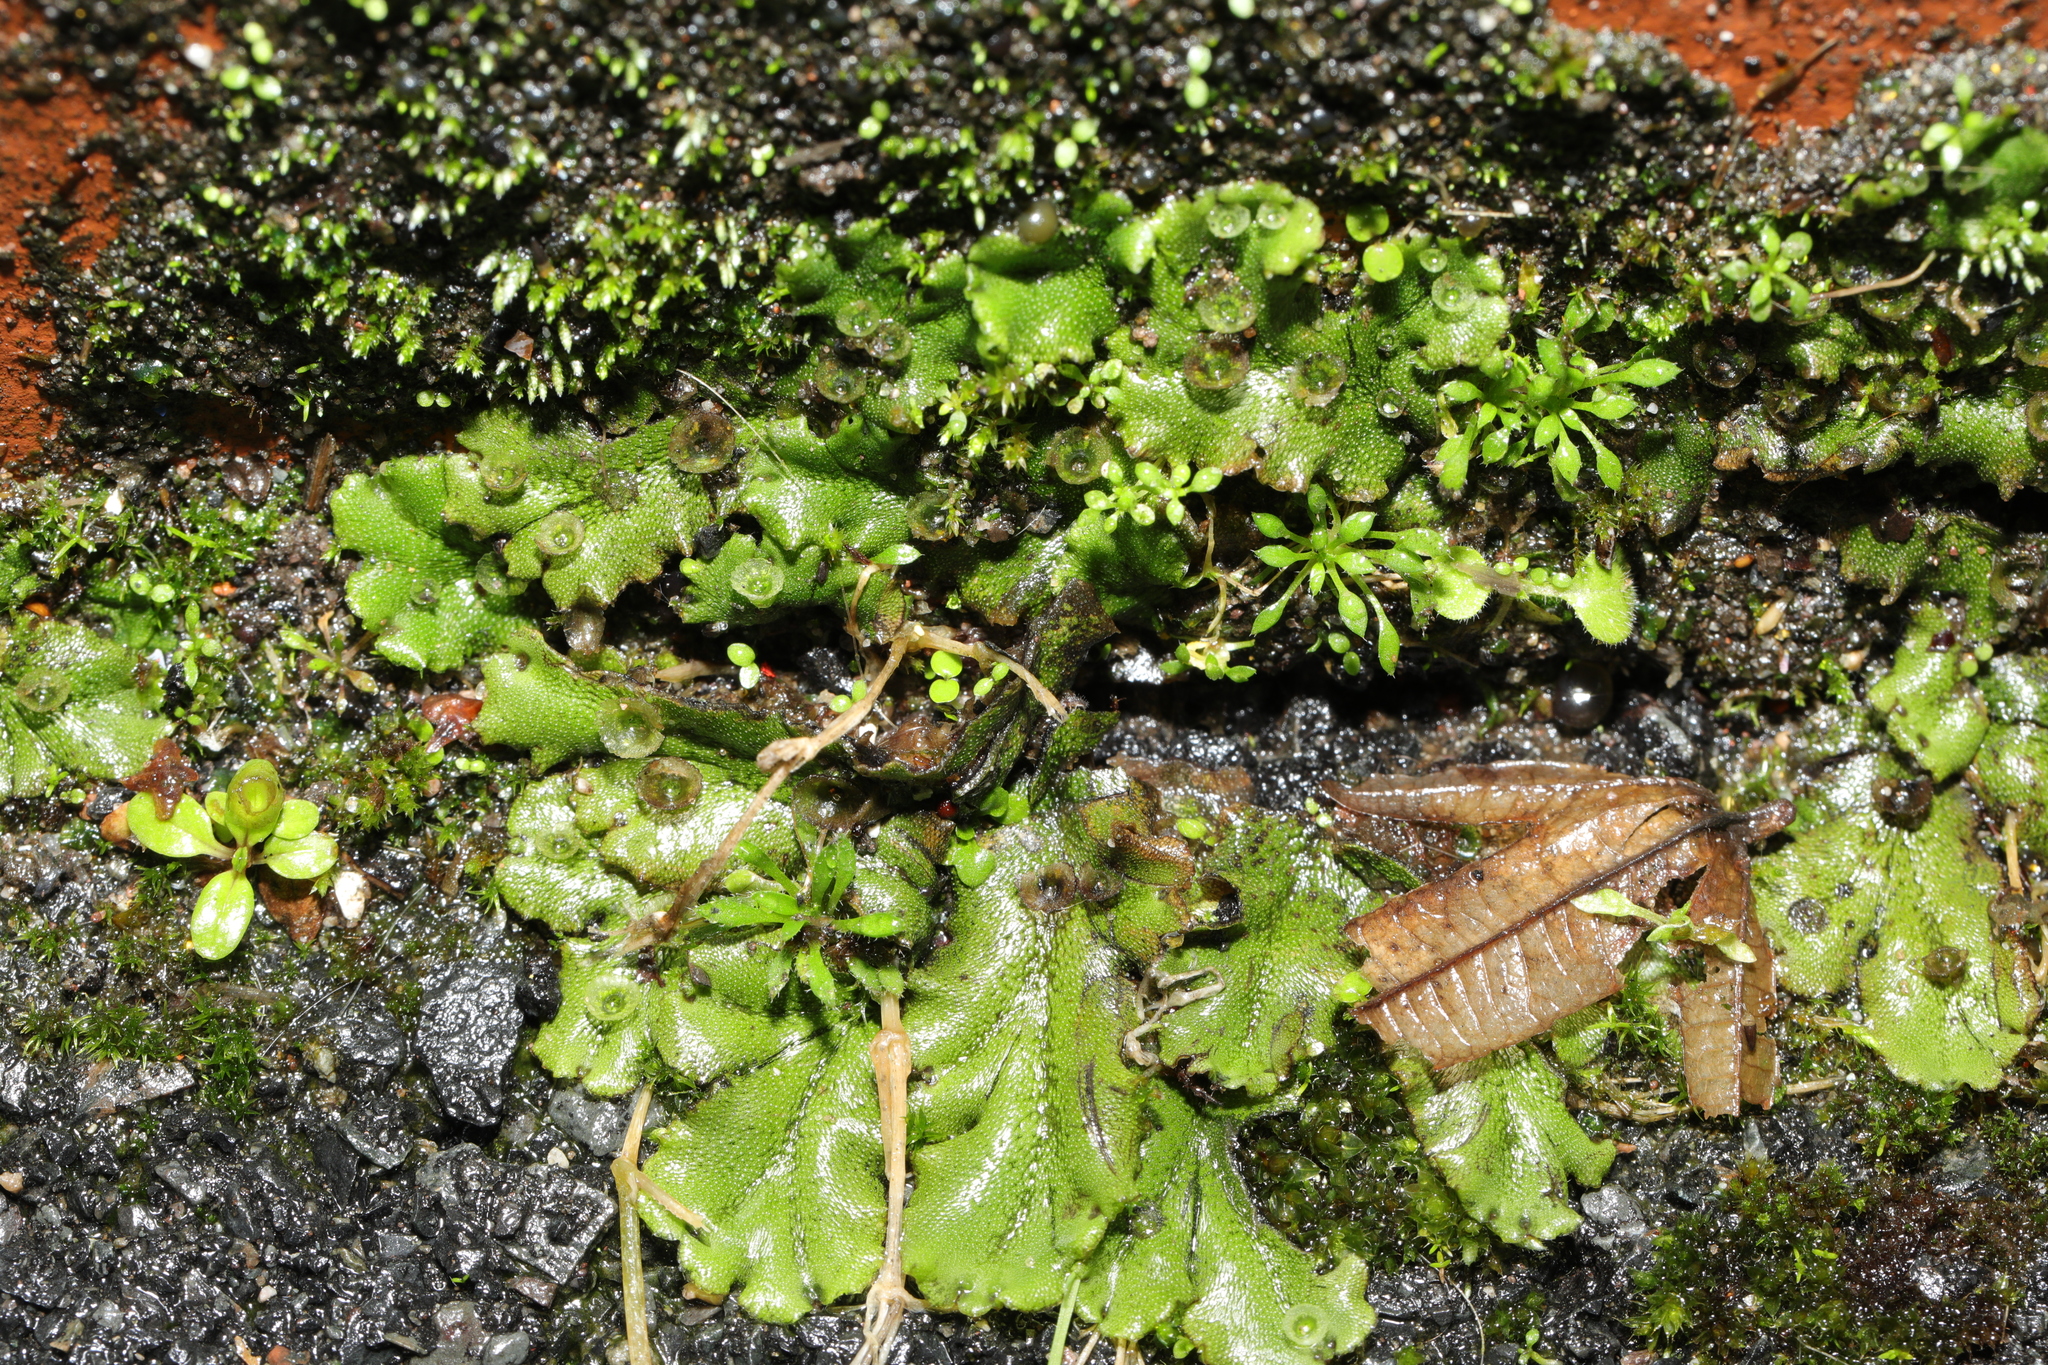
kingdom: Plantae
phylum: Marchantiophyta
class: Marchantiopsida
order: Marchantiales
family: Marchantiaceae
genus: Marchantia
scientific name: Marchantia polymorpha
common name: Common liverwort
